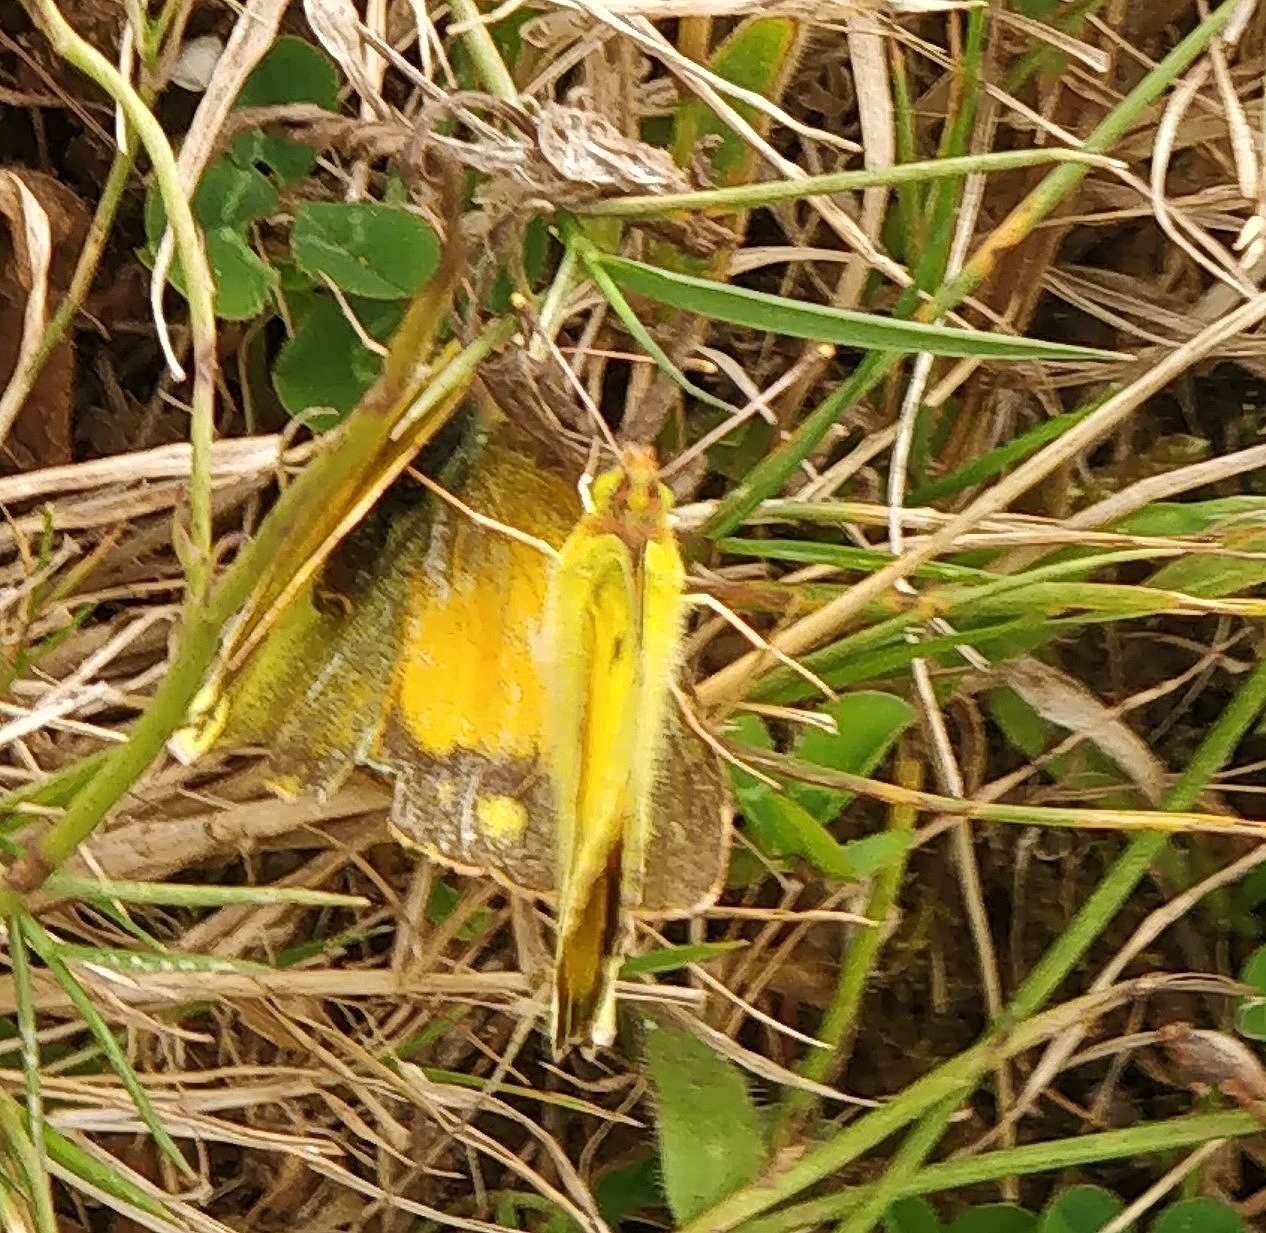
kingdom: Animalia
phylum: Arthropoda
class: Insecta
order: Lepidoptera
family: Pieridae
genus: Colias
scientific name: Colias croceus
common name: Clouded yellow
